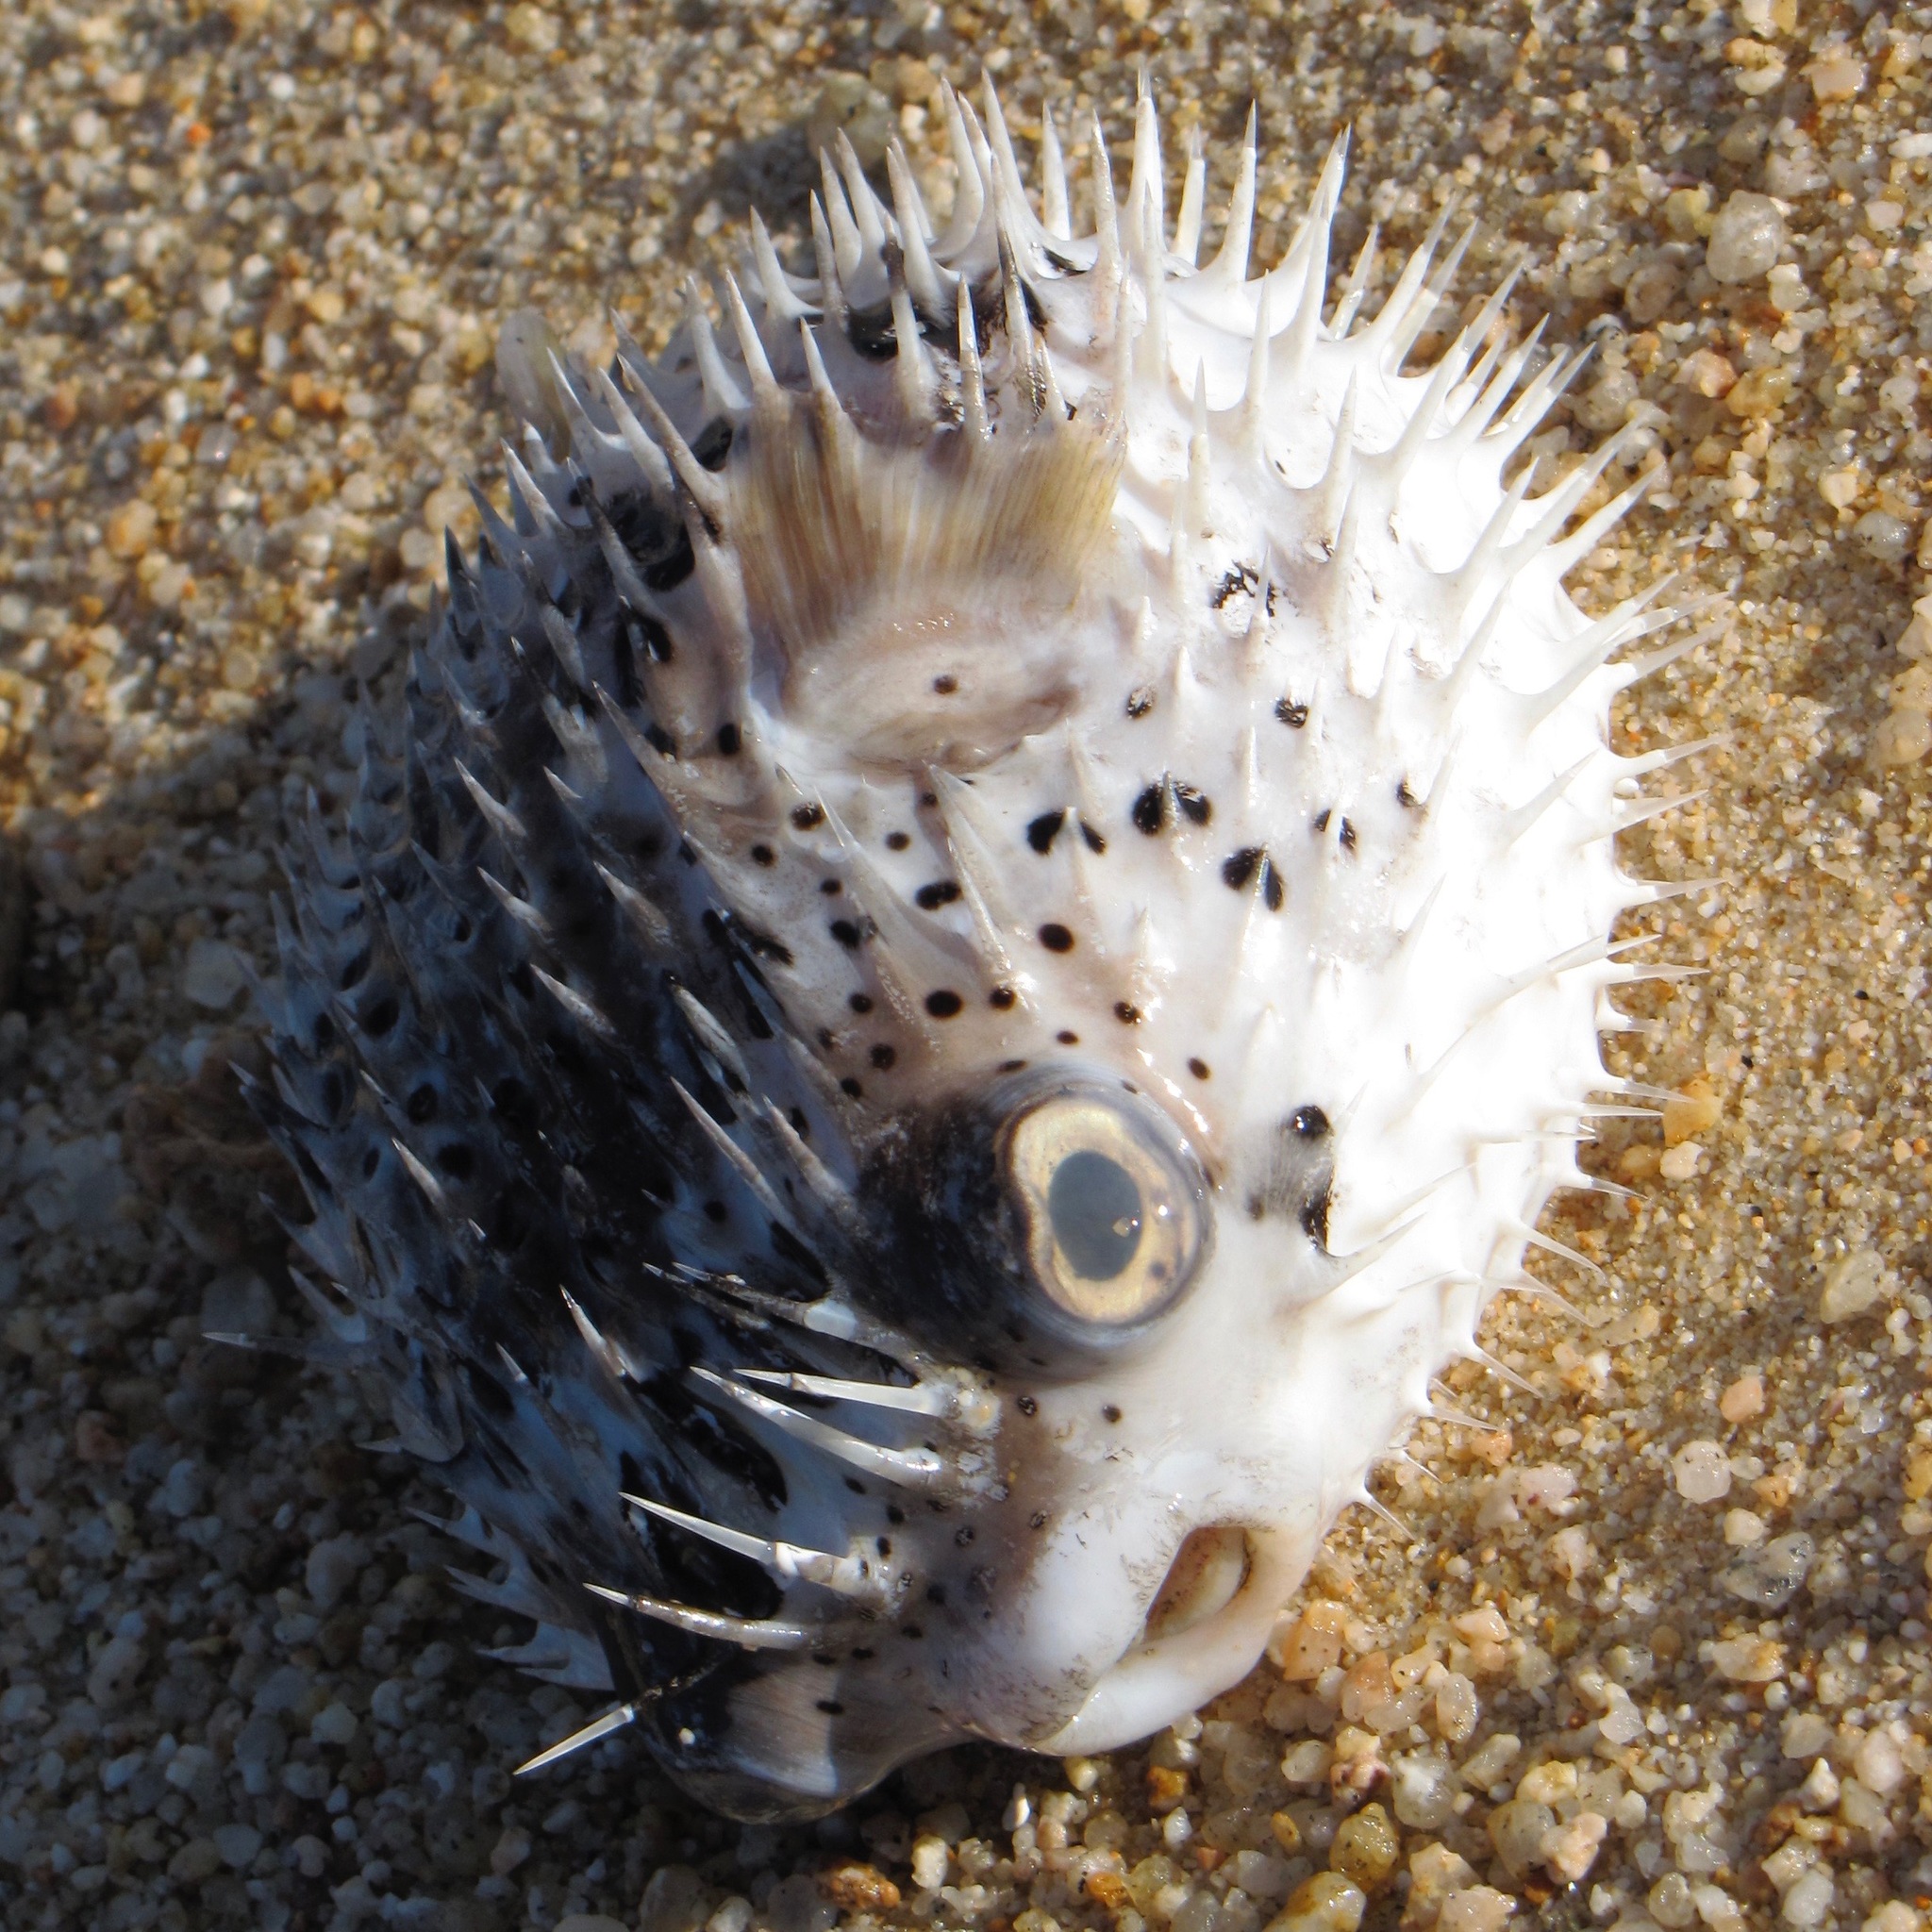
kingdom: Animalia
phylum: Chordata
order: Tetraodontiformes
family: Diodontidae
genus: Diodon
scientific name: Diodon holocanthus
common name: Balloonfish
